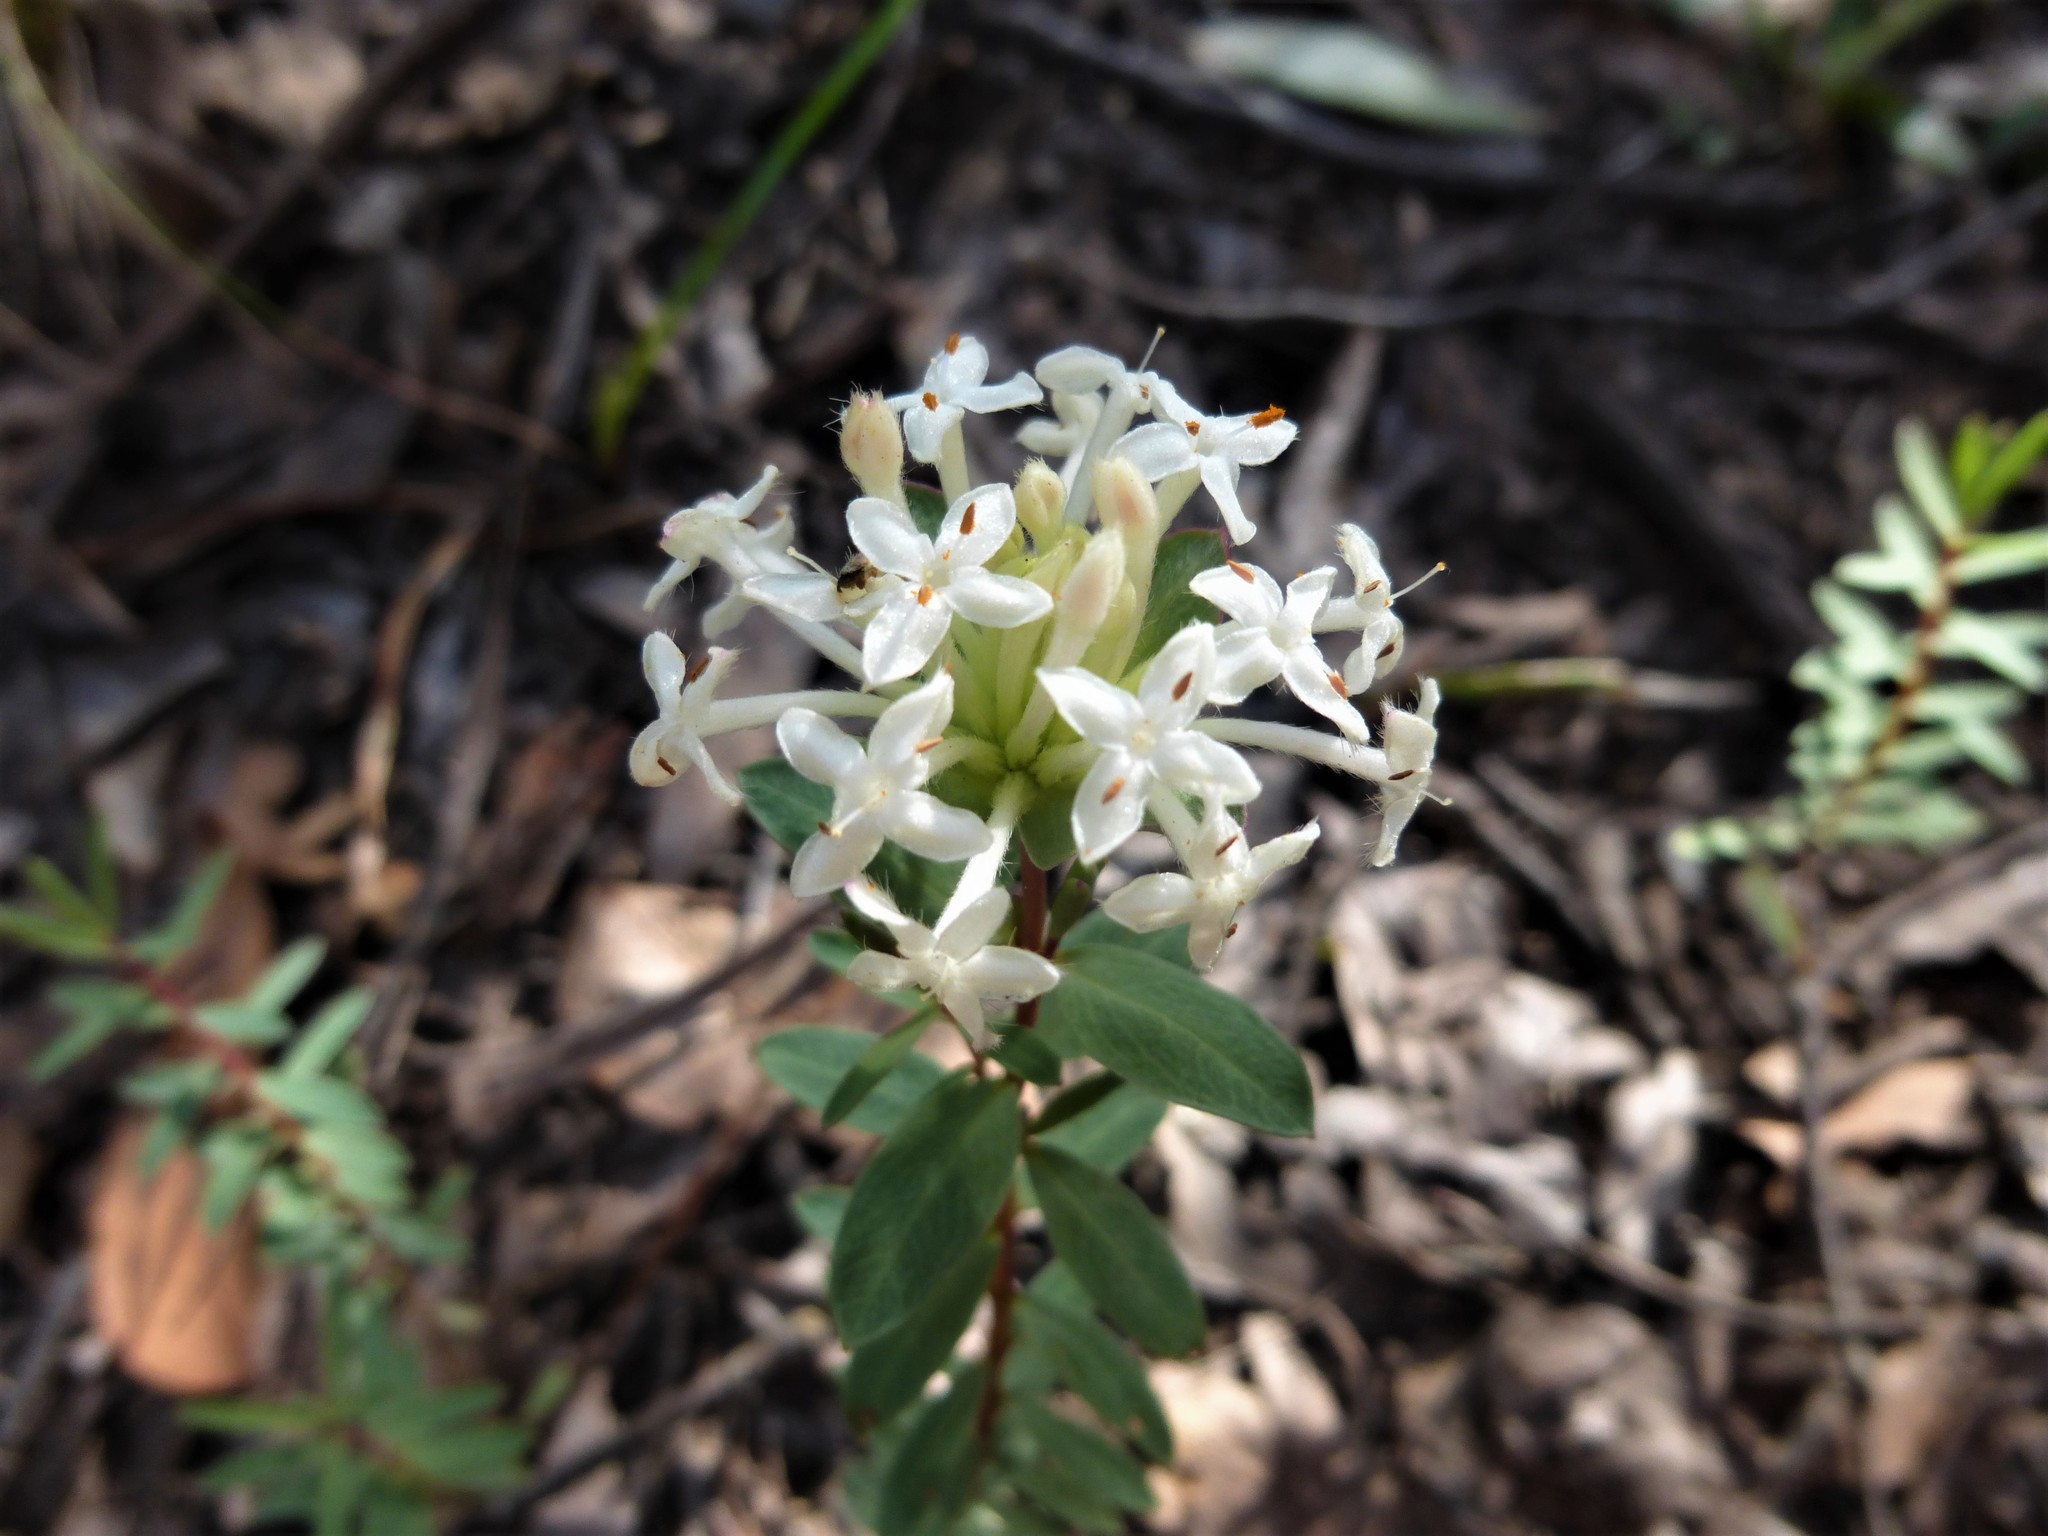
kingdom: Plantae
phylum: Tracheophyta
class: Magnoliopsida
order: Malvales
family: Thymelaeaceae
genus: Pimelea
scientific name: Pimelea linifolia
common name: Queen-of-the-bush
